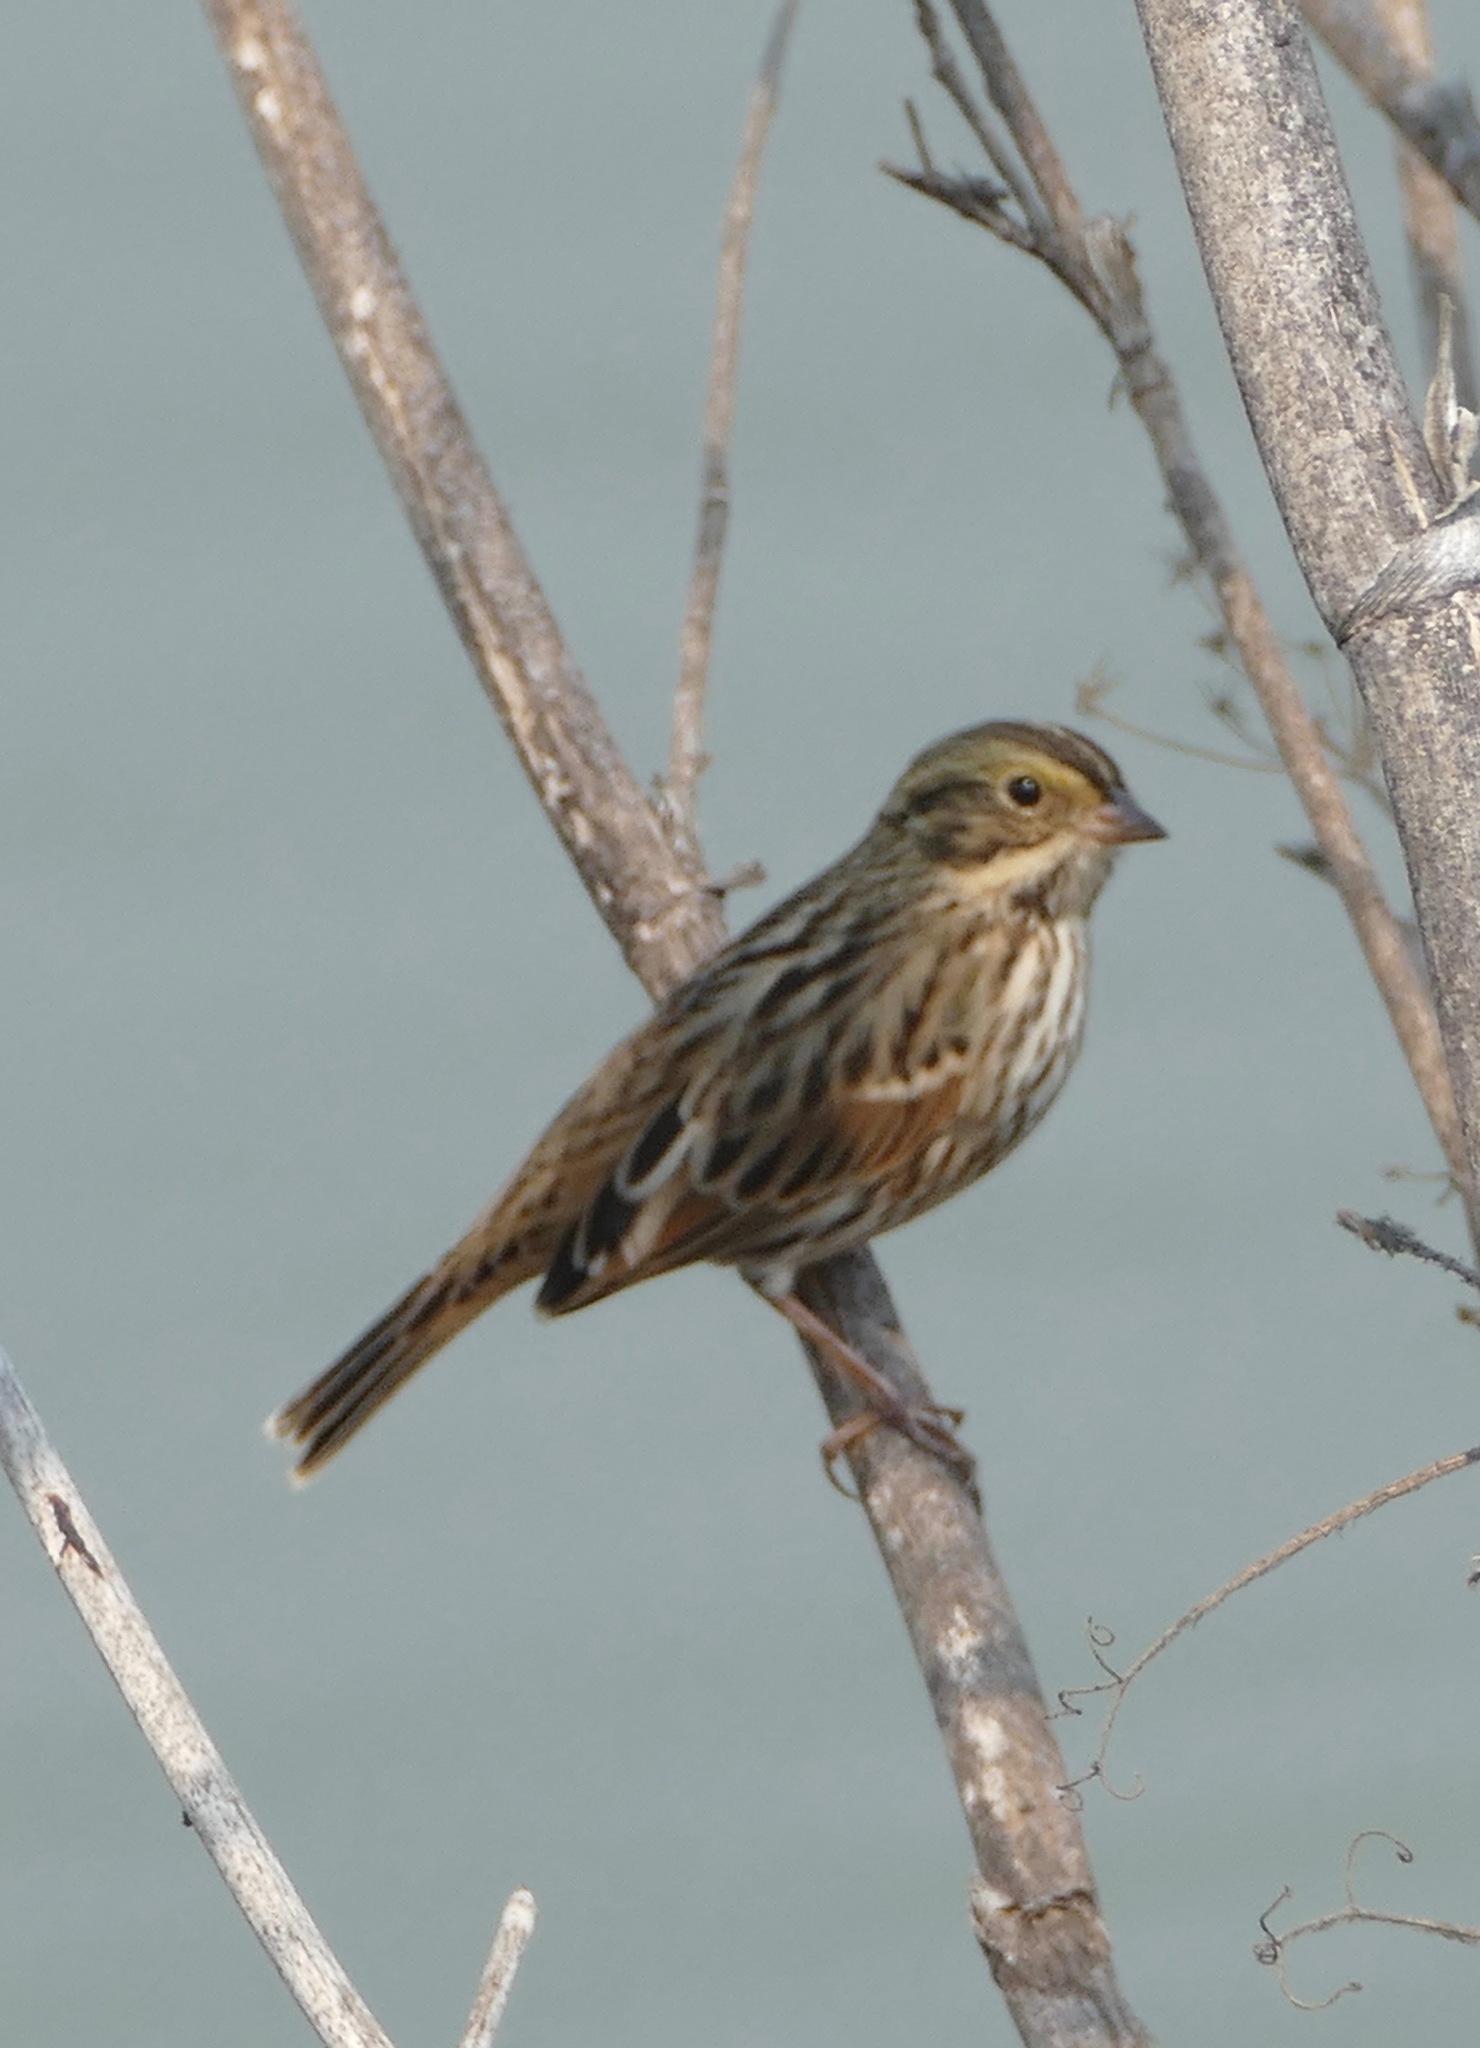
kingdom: Animalia
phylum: Chordata
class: Aves
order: Passeriformes
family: Passerellidae
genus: Passerculus
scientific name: Passerculus sandwichensis
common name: Savannah sparrow
